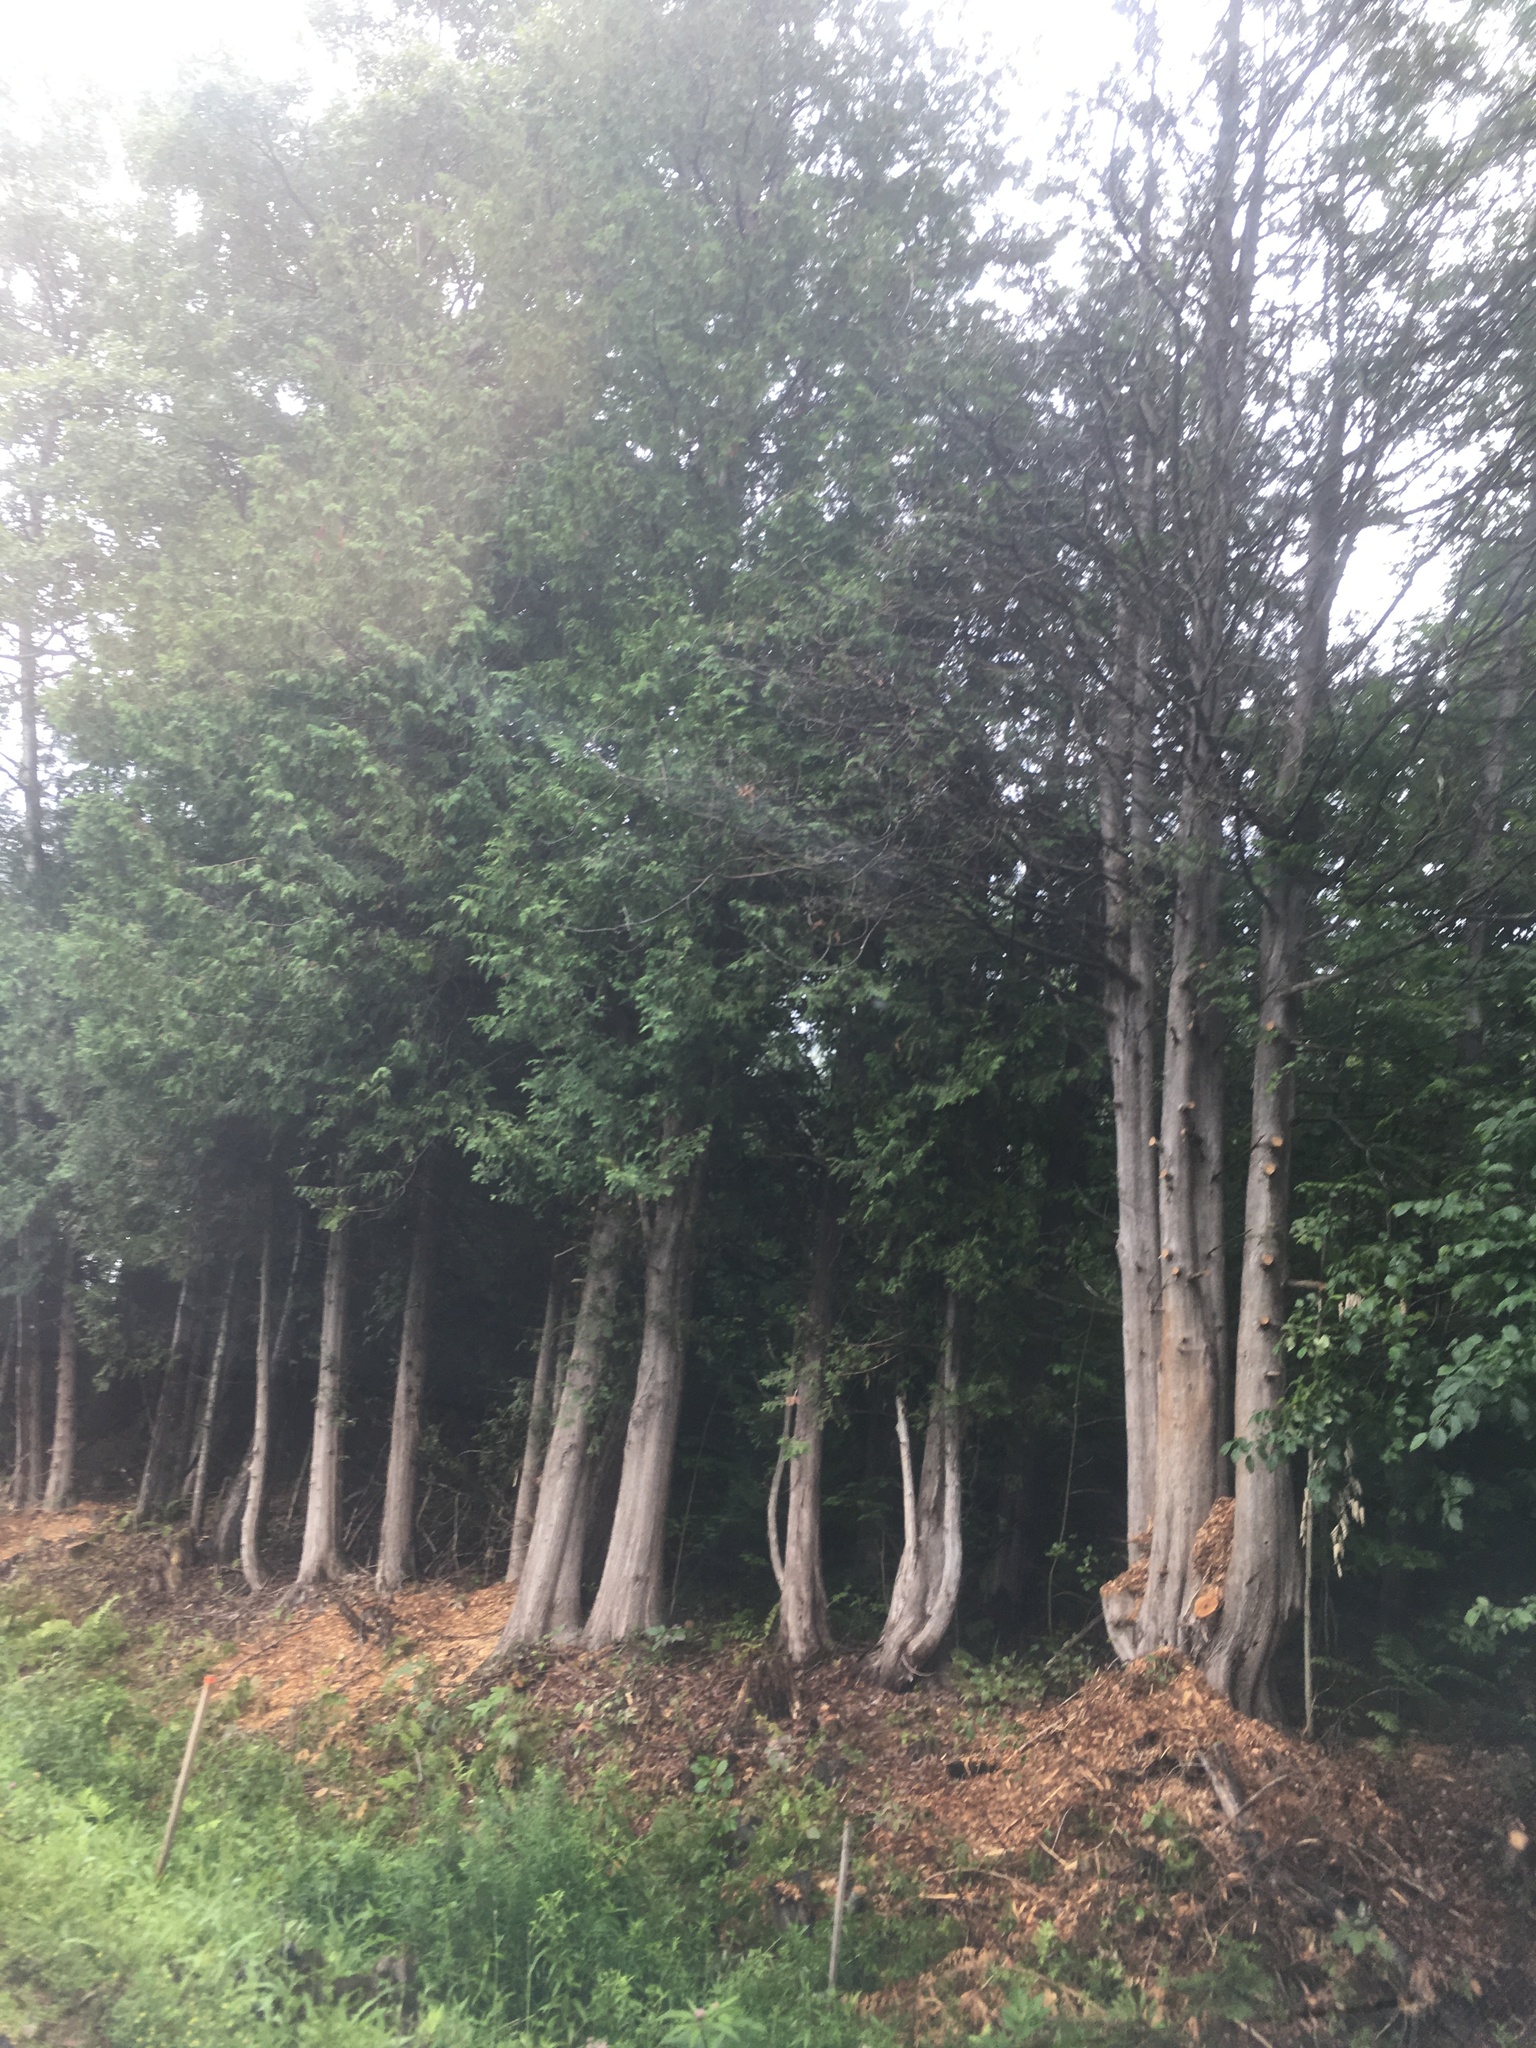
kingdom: Plantae
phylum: Tracheophyta
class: Pinopsida
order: Pinales
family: Cupressaceae
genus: Thuja
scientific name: Thuja occidentalis
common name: Northern white-cedar
